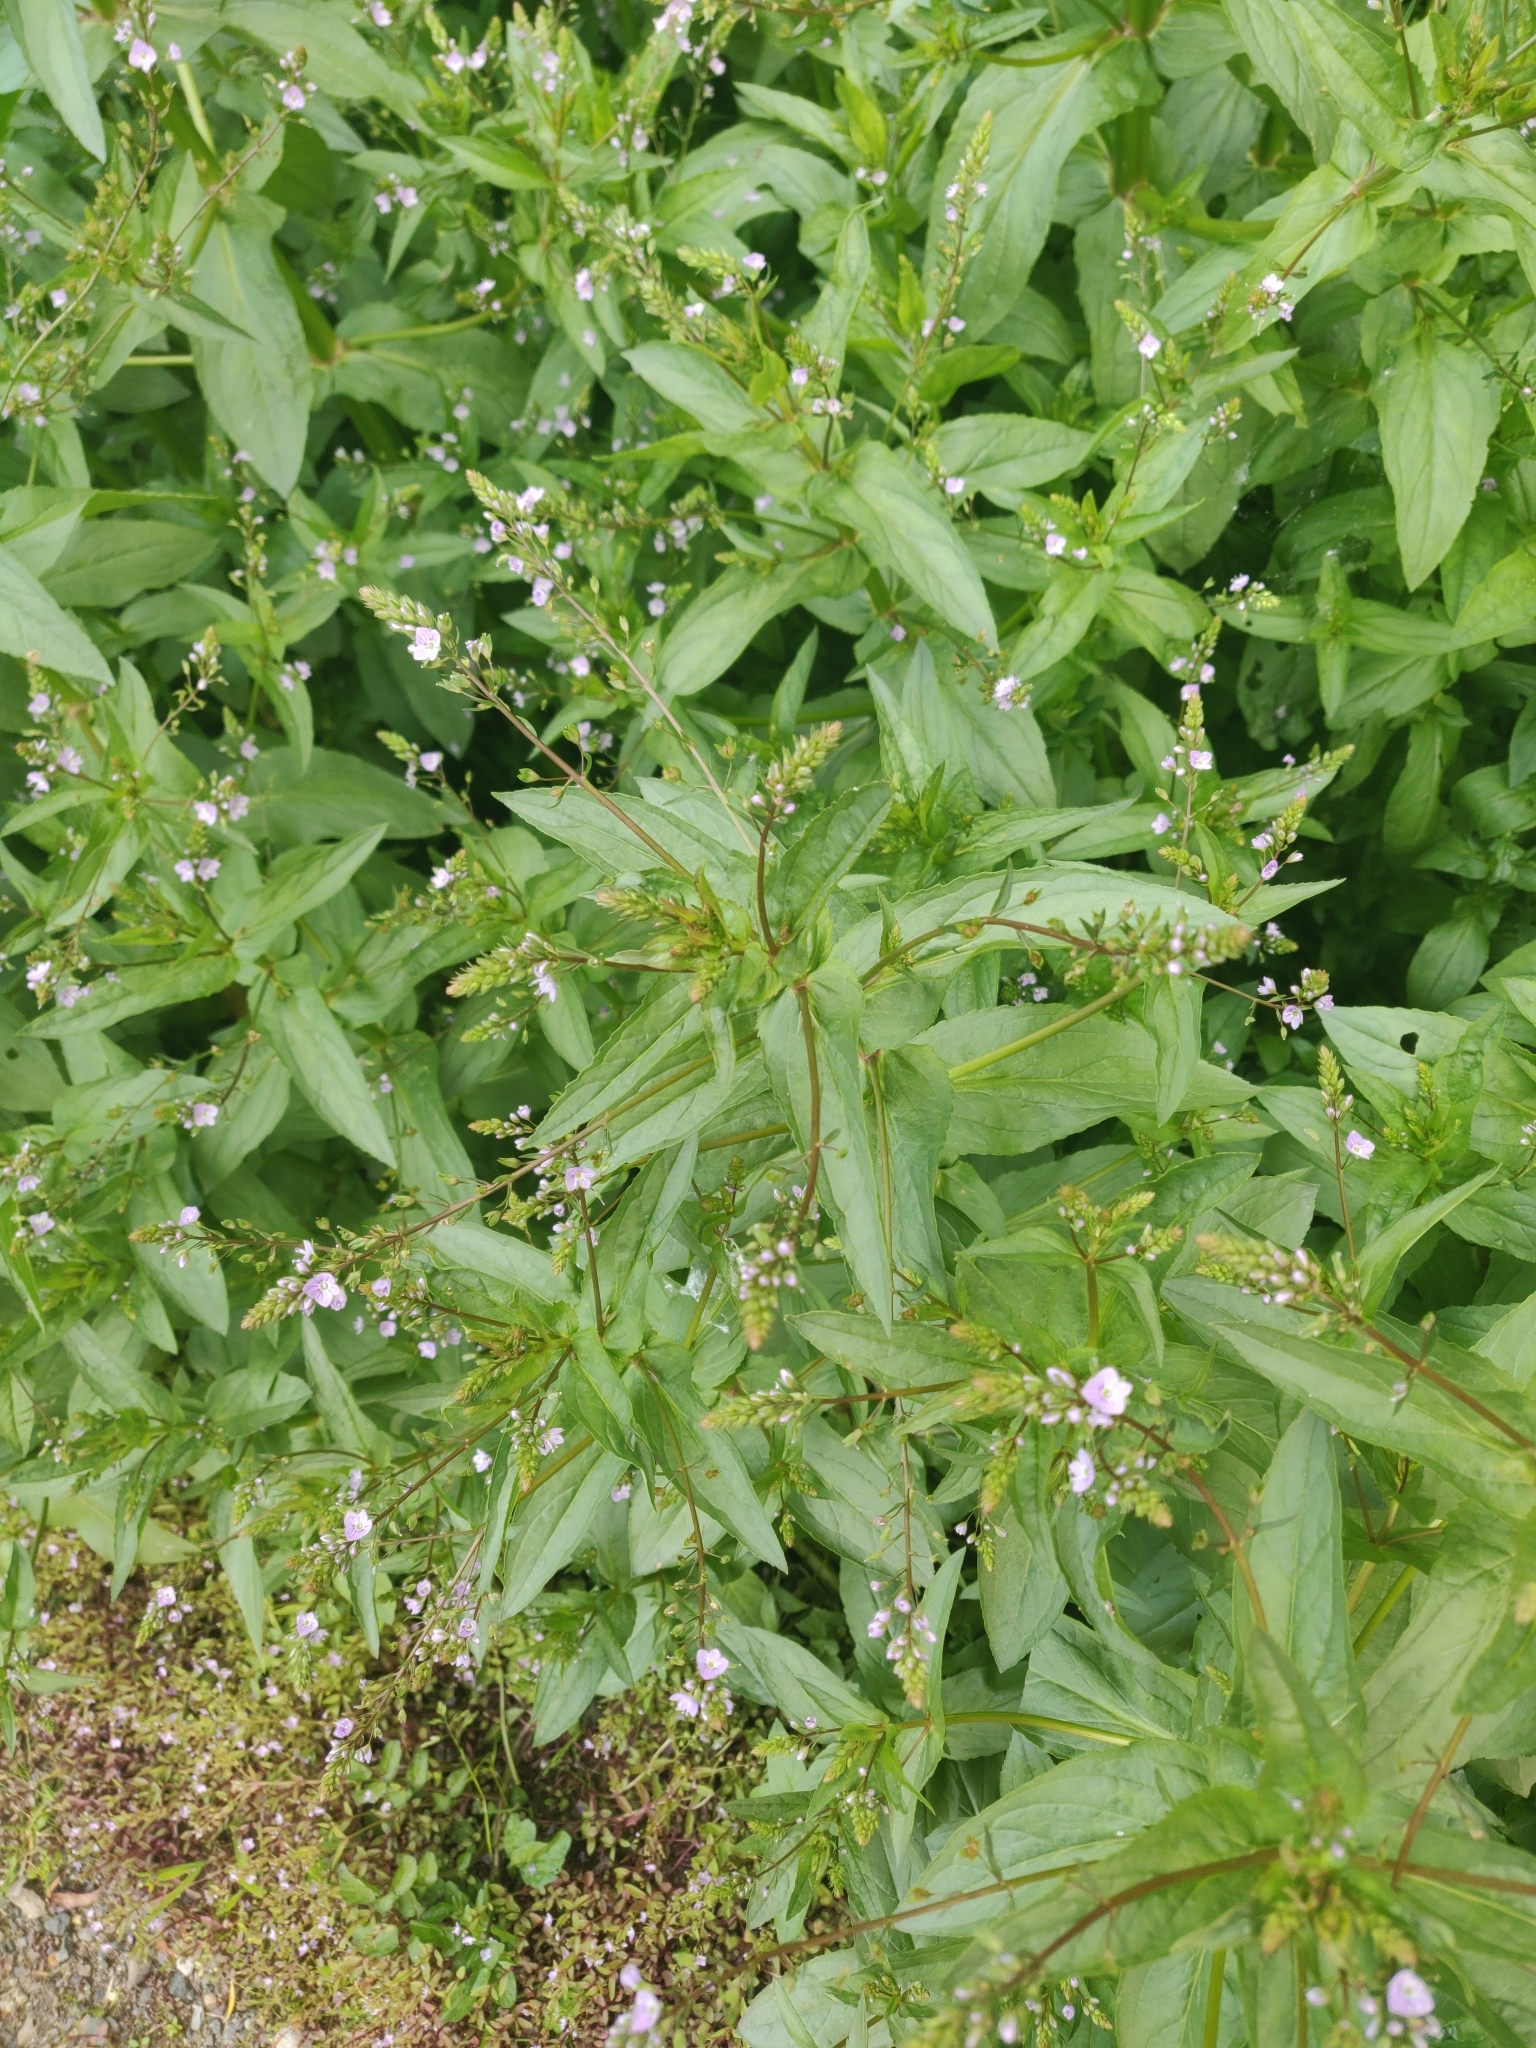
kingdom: Plantae
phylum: Tracheophyta
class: Magnoliopsida
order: Lamiales
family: Plantaginaceae
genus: Veronica
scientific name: Veronica anagallis-aquatica
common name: Water speedwell
